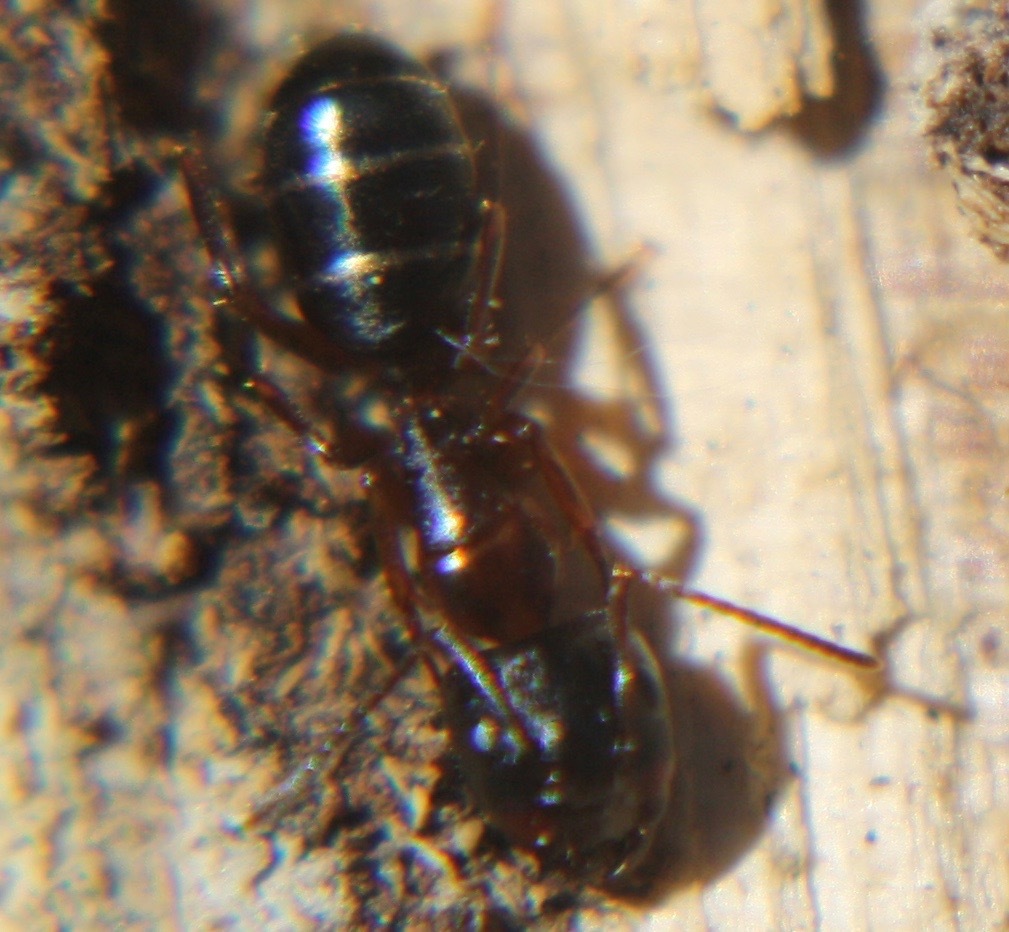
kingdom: Animalia
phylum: Arthropoda
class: Insecta
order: Hymenoptera
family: Formicidae
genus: Camponotus
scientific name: Camponotus nearcticus
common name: Smaller carpenter ant
